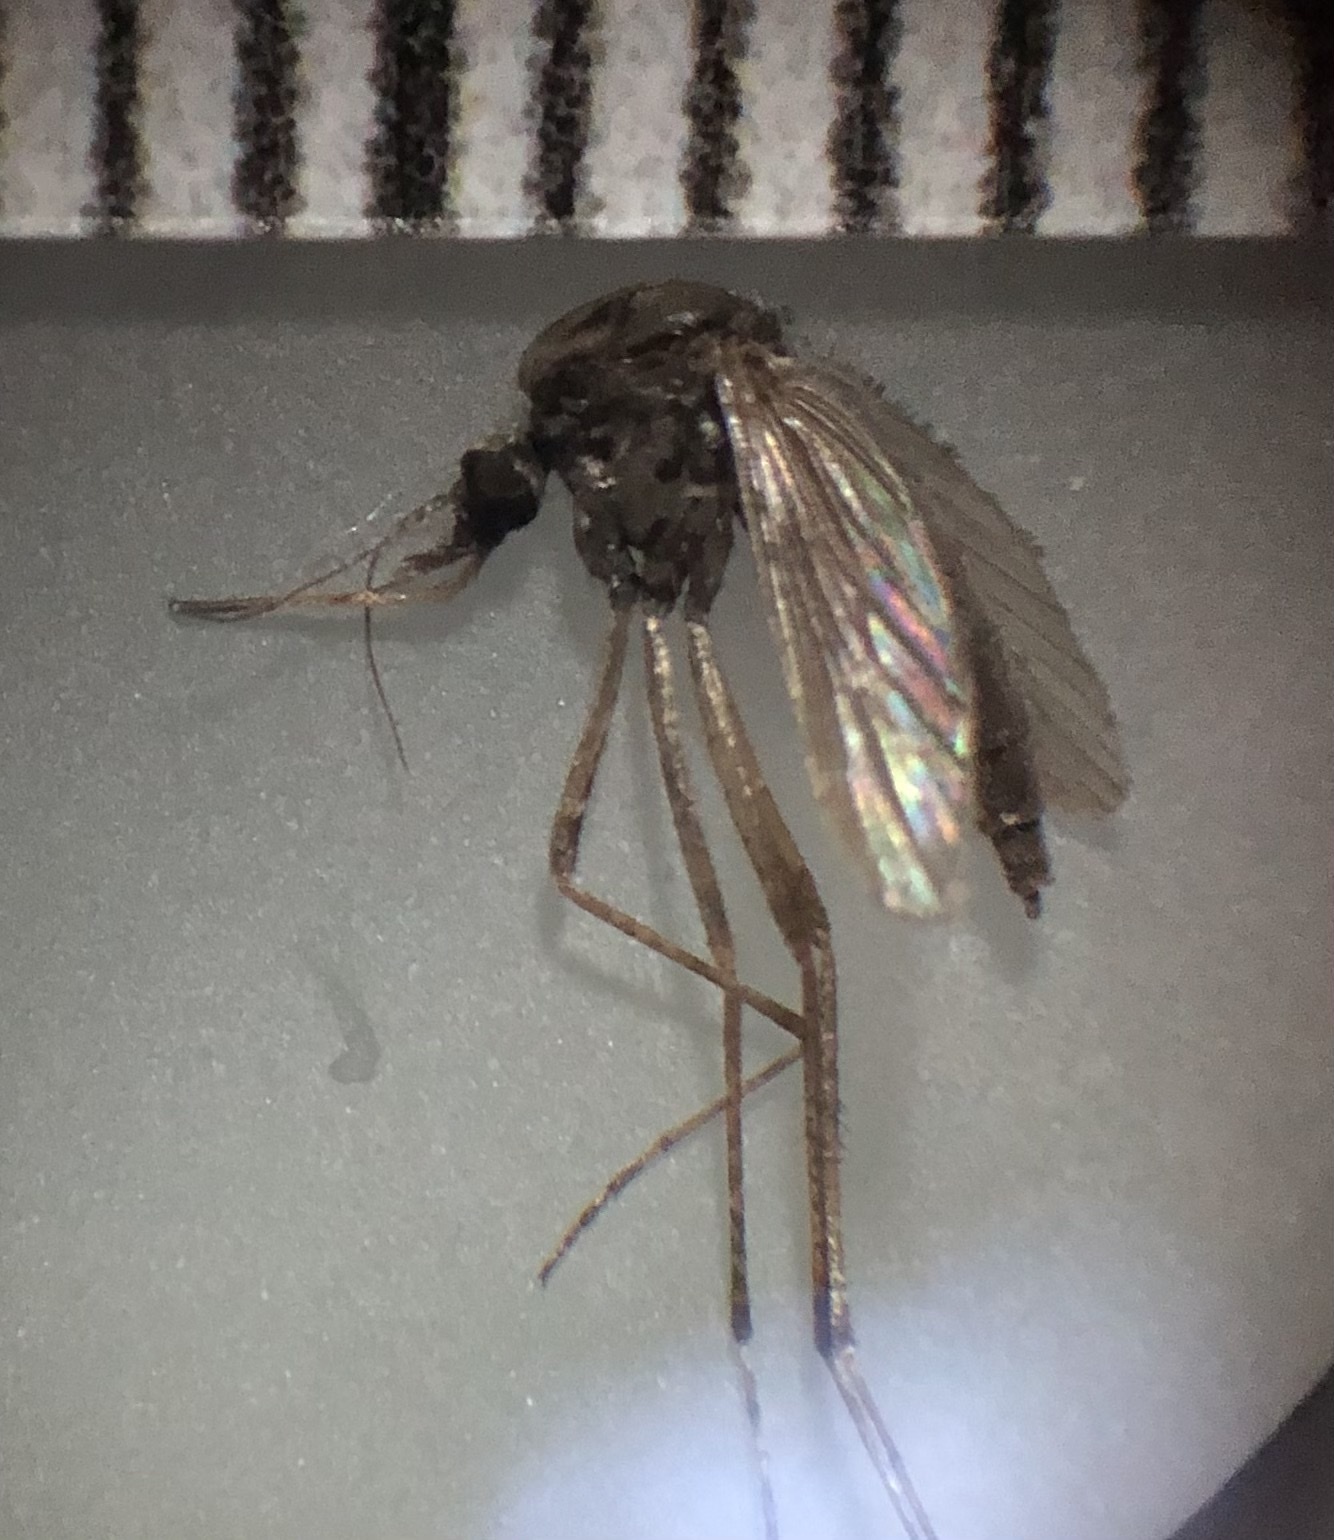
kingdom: Animalia
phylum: Arthropoda
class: Insecta
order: Diptera
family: Culicidae
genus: Psorophora
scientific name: Psorophora columbiae
